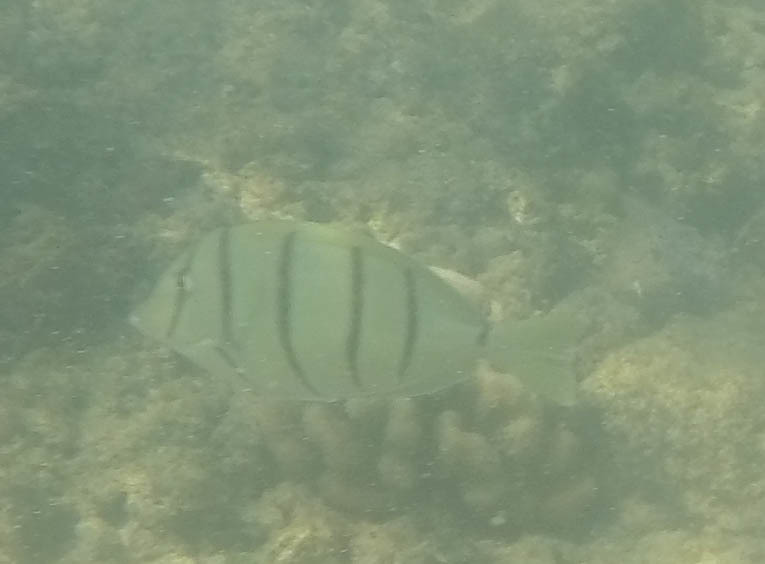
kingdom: Animalia
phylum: Chordata
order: Perciformes
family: Acanthuridae
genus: Acanthurus
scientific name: Acanthurus triostegus
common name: Convict surgeonfish
